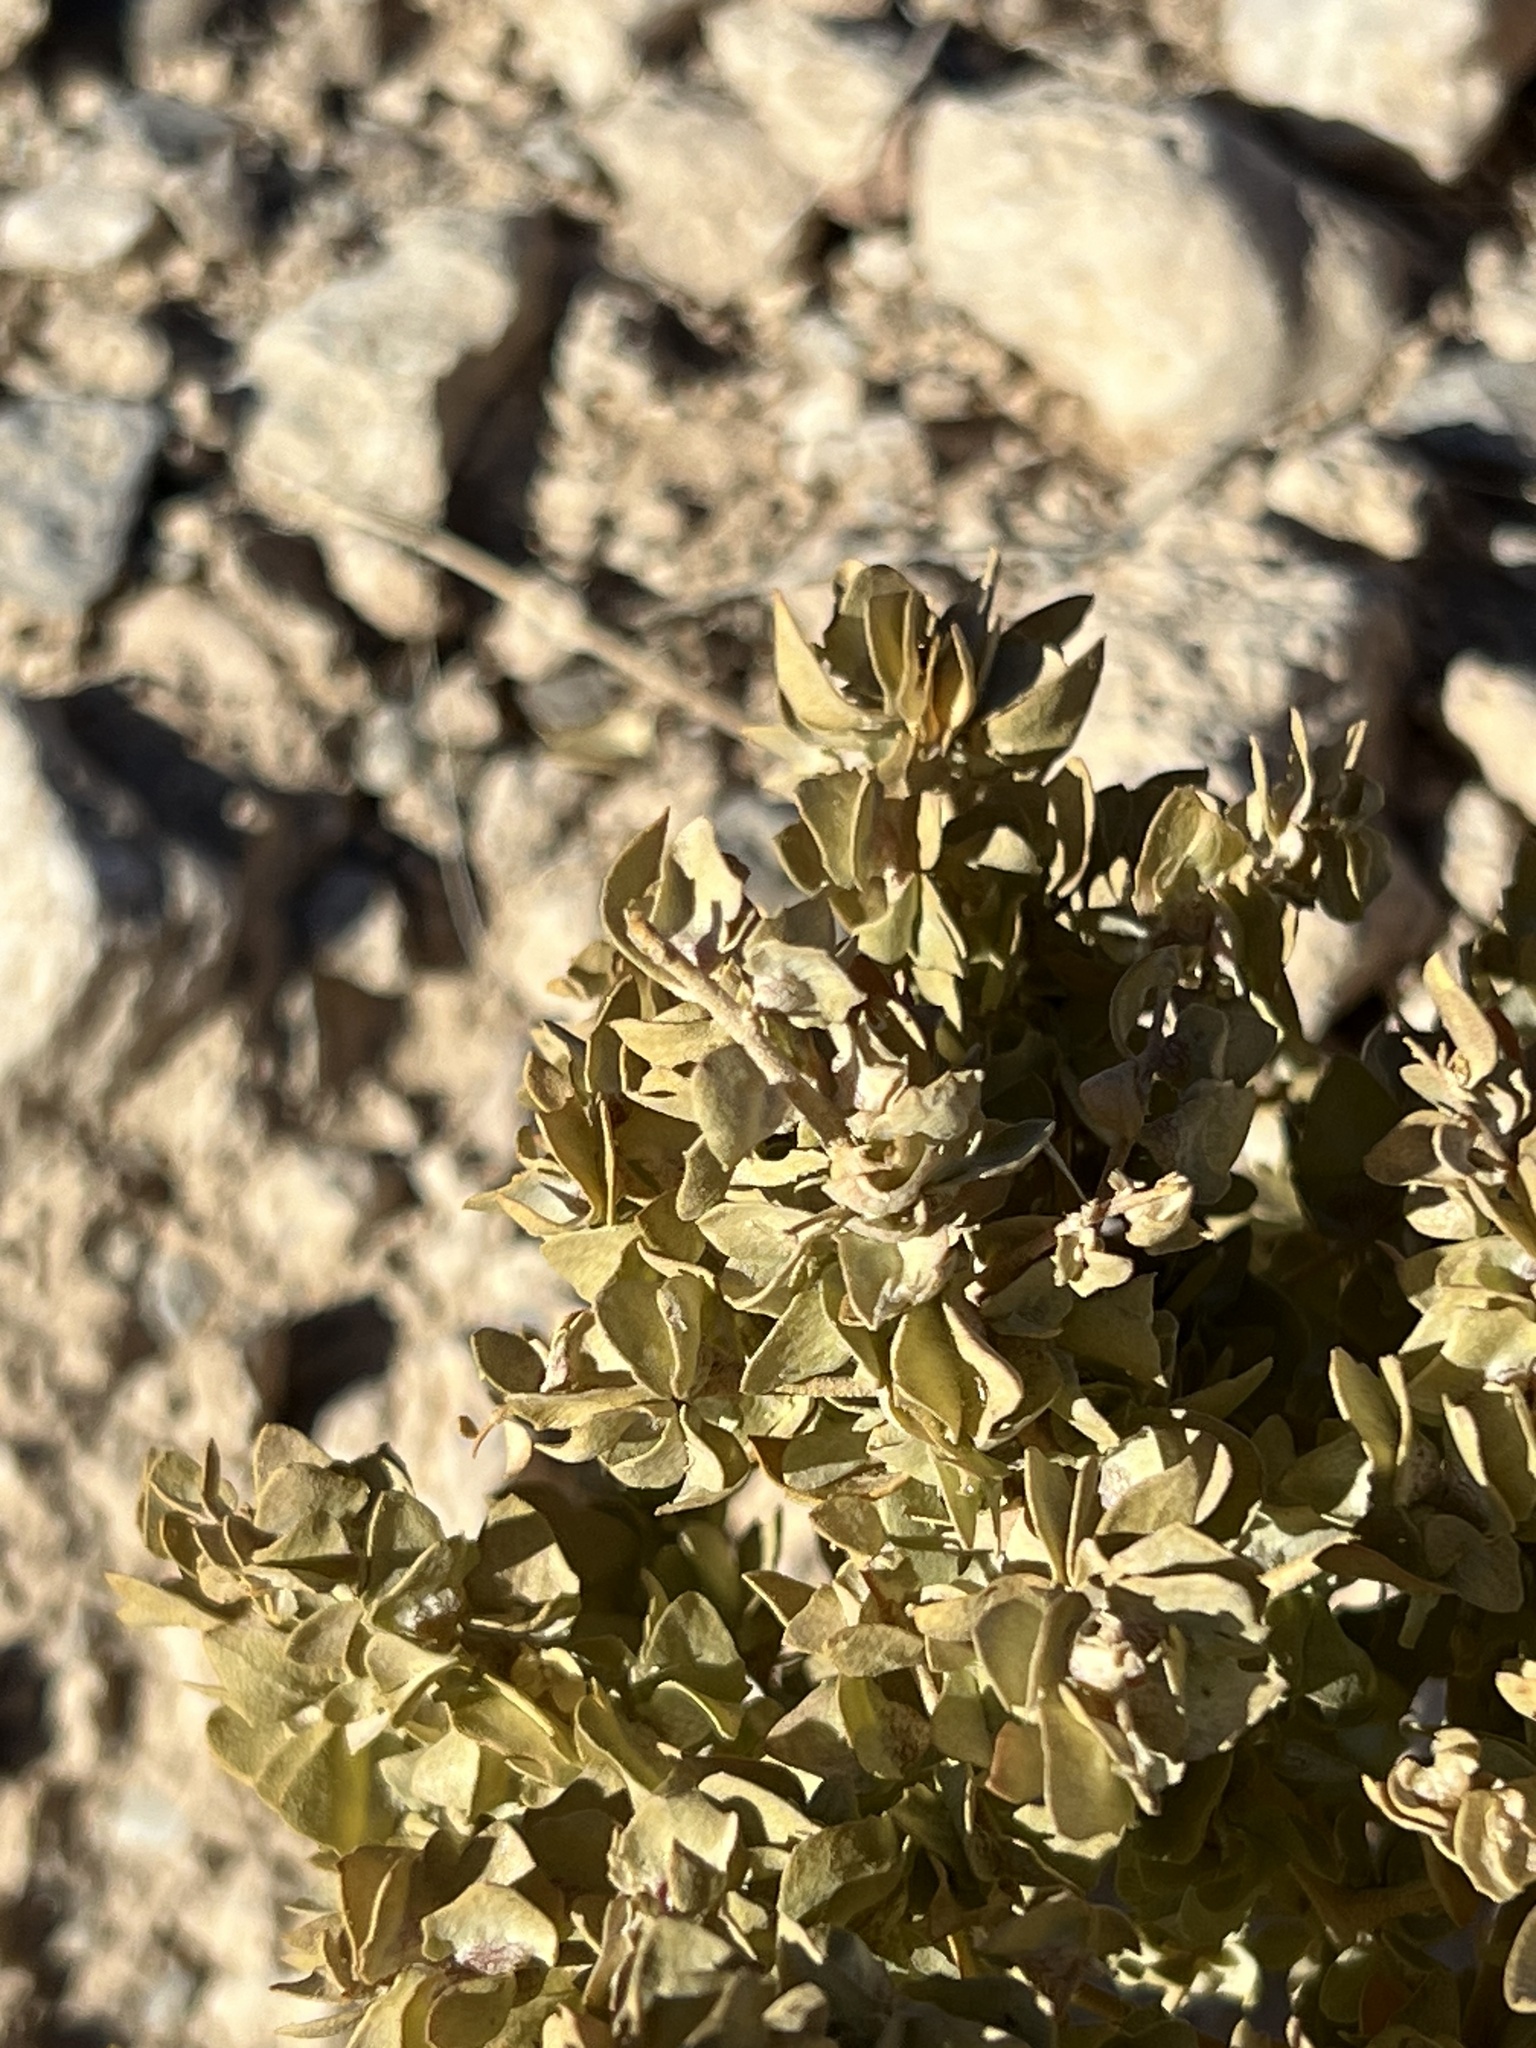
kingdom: Plantae
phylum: Tracheophyta
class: Magnoliopsida
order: Caryophyllales
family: Amaranthaceae
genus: Atriplex
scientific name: Atriplex confertifolia
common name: Shadscale
